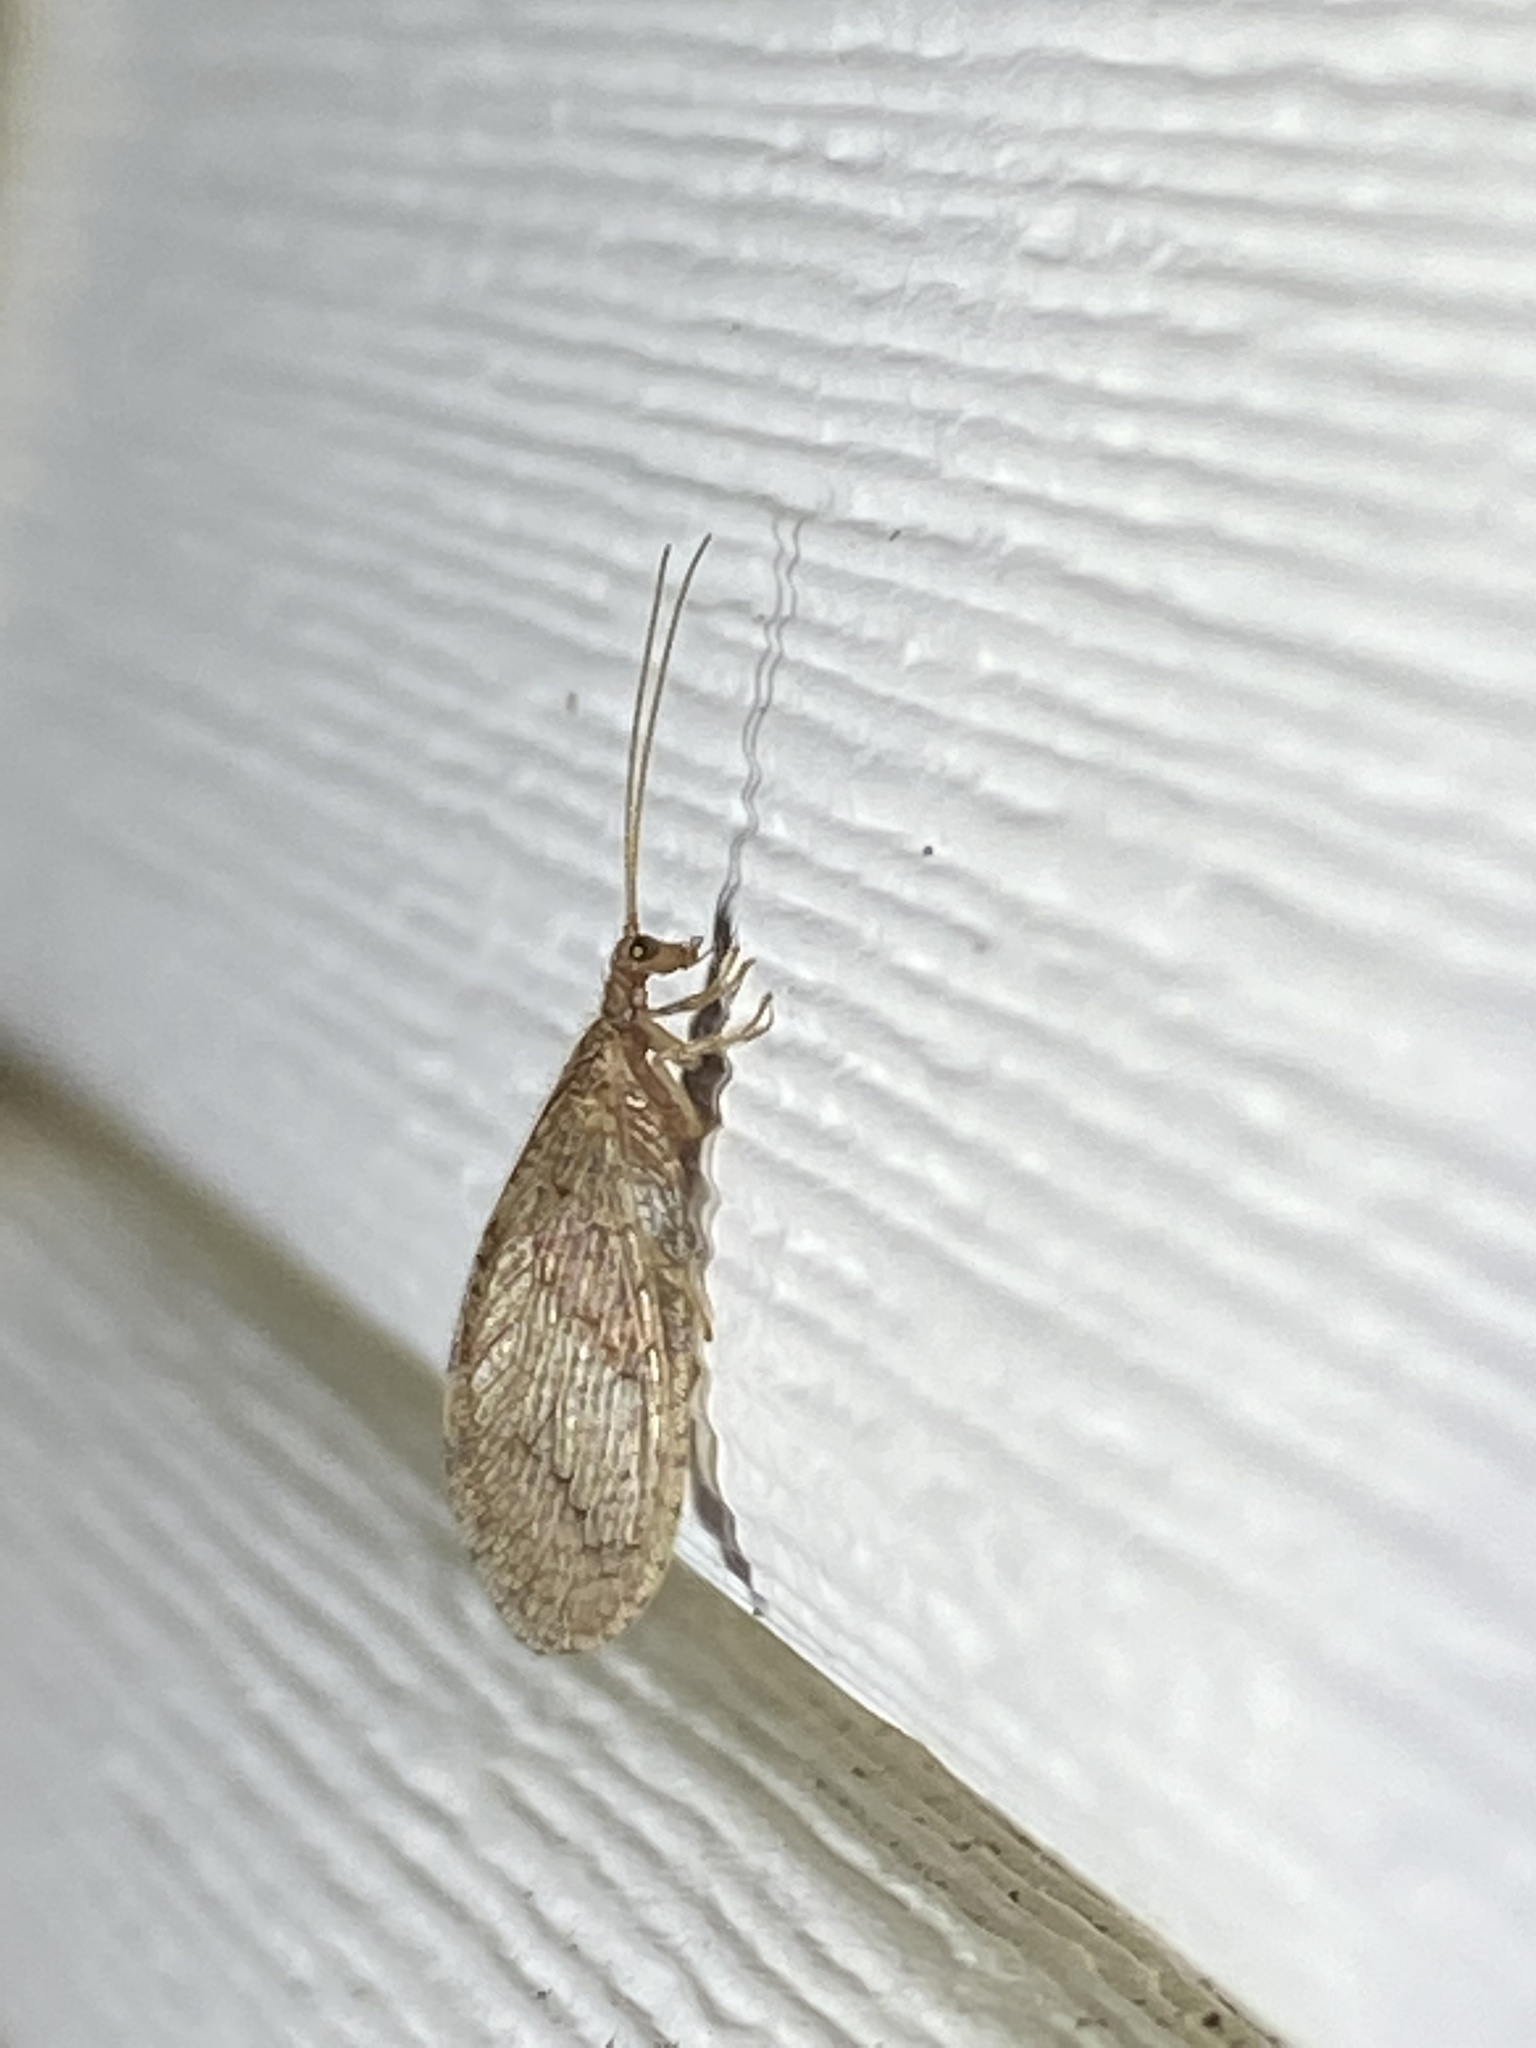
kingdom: Animalia
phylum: Arthropoda
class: Insecta
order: Neuroptera
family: Hemerobiidae
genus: Micromus
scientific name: Micromus posticus
